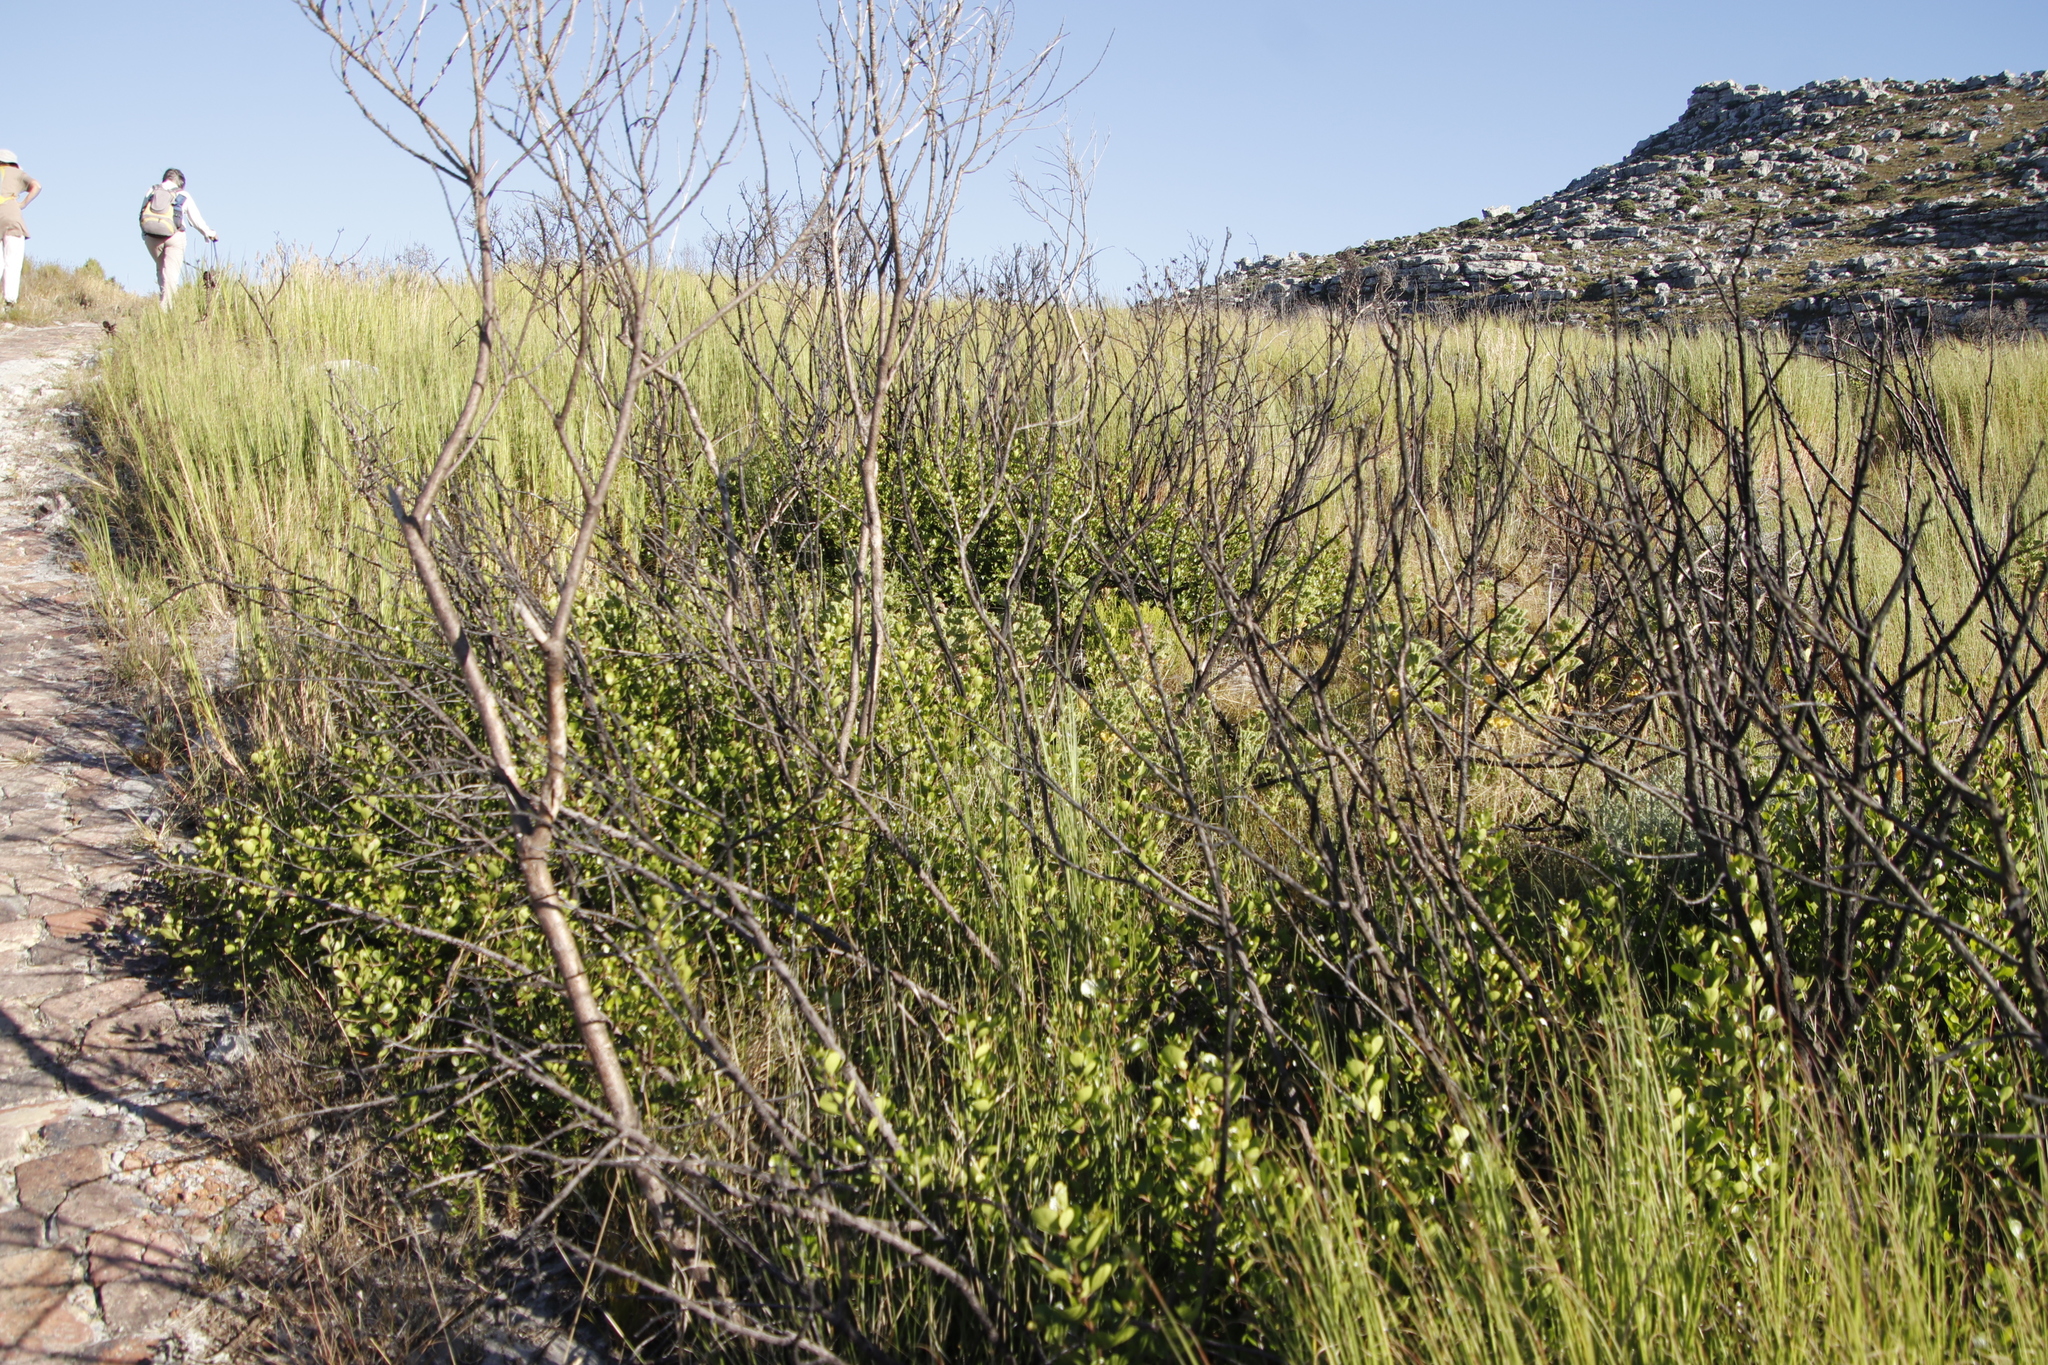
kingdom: Plantae
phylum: Tracheophyta
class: Magnoliopsida
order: Sapindales
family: Anacardiaceae
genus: Searsia
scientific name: Searsia lucida
